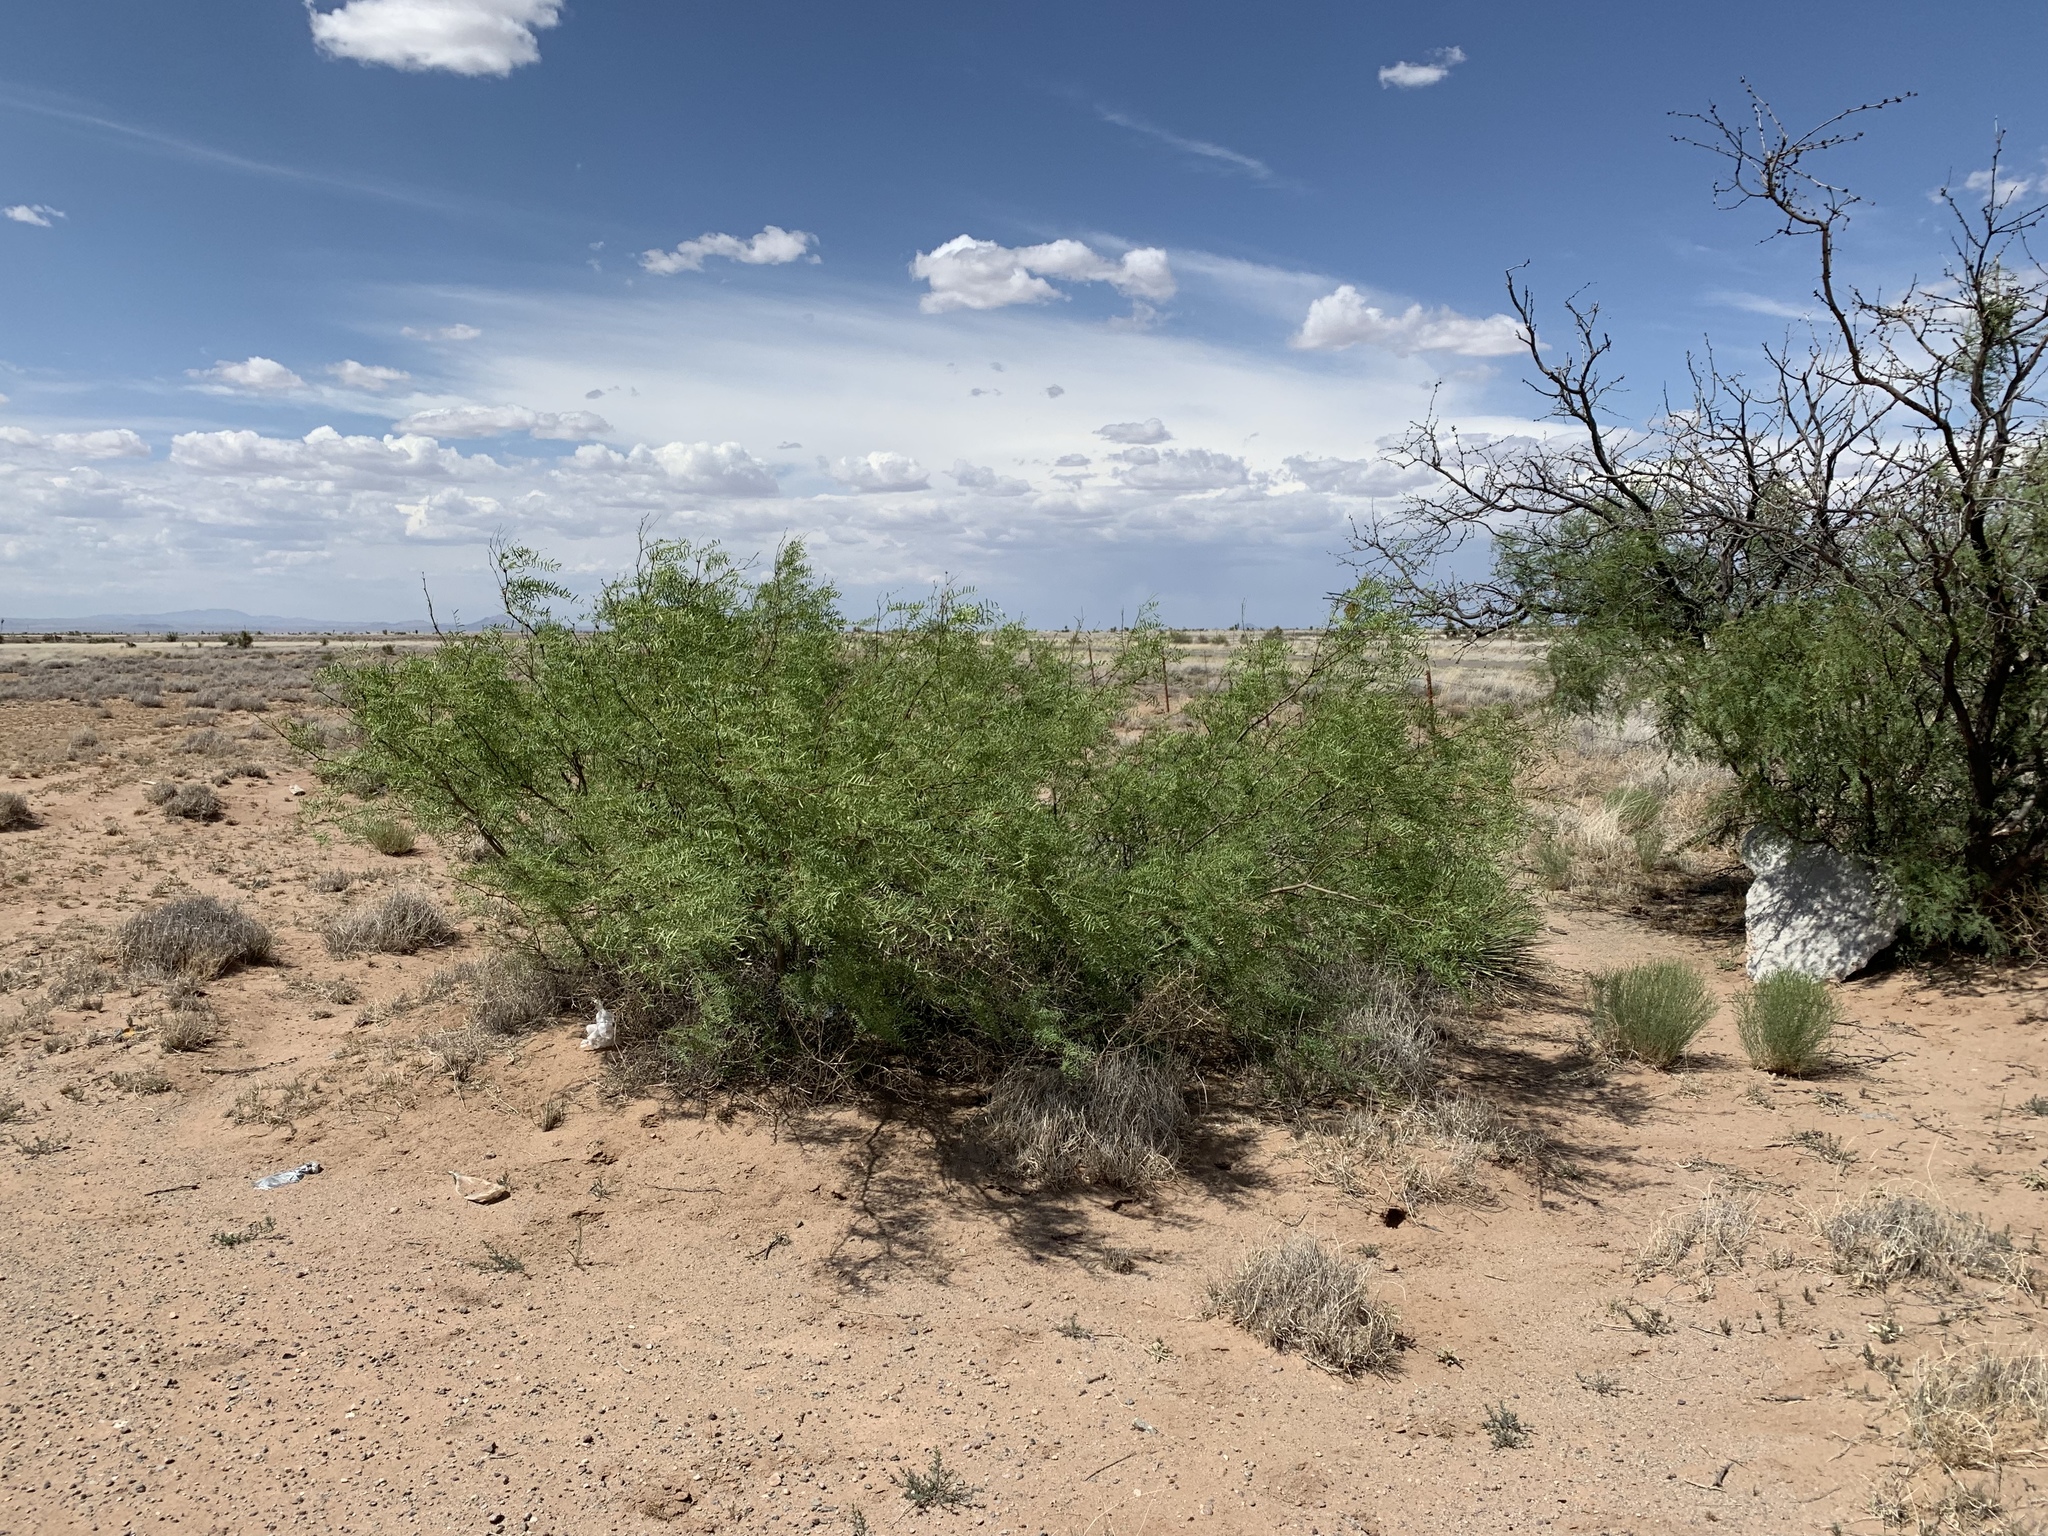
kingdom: Plantae
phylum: Tracheophyta
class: Magnoliopsida
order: Fabales
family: Fabaceae
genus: Prosopis
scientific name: Prosopis glandulosa
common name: Honey mesquite
